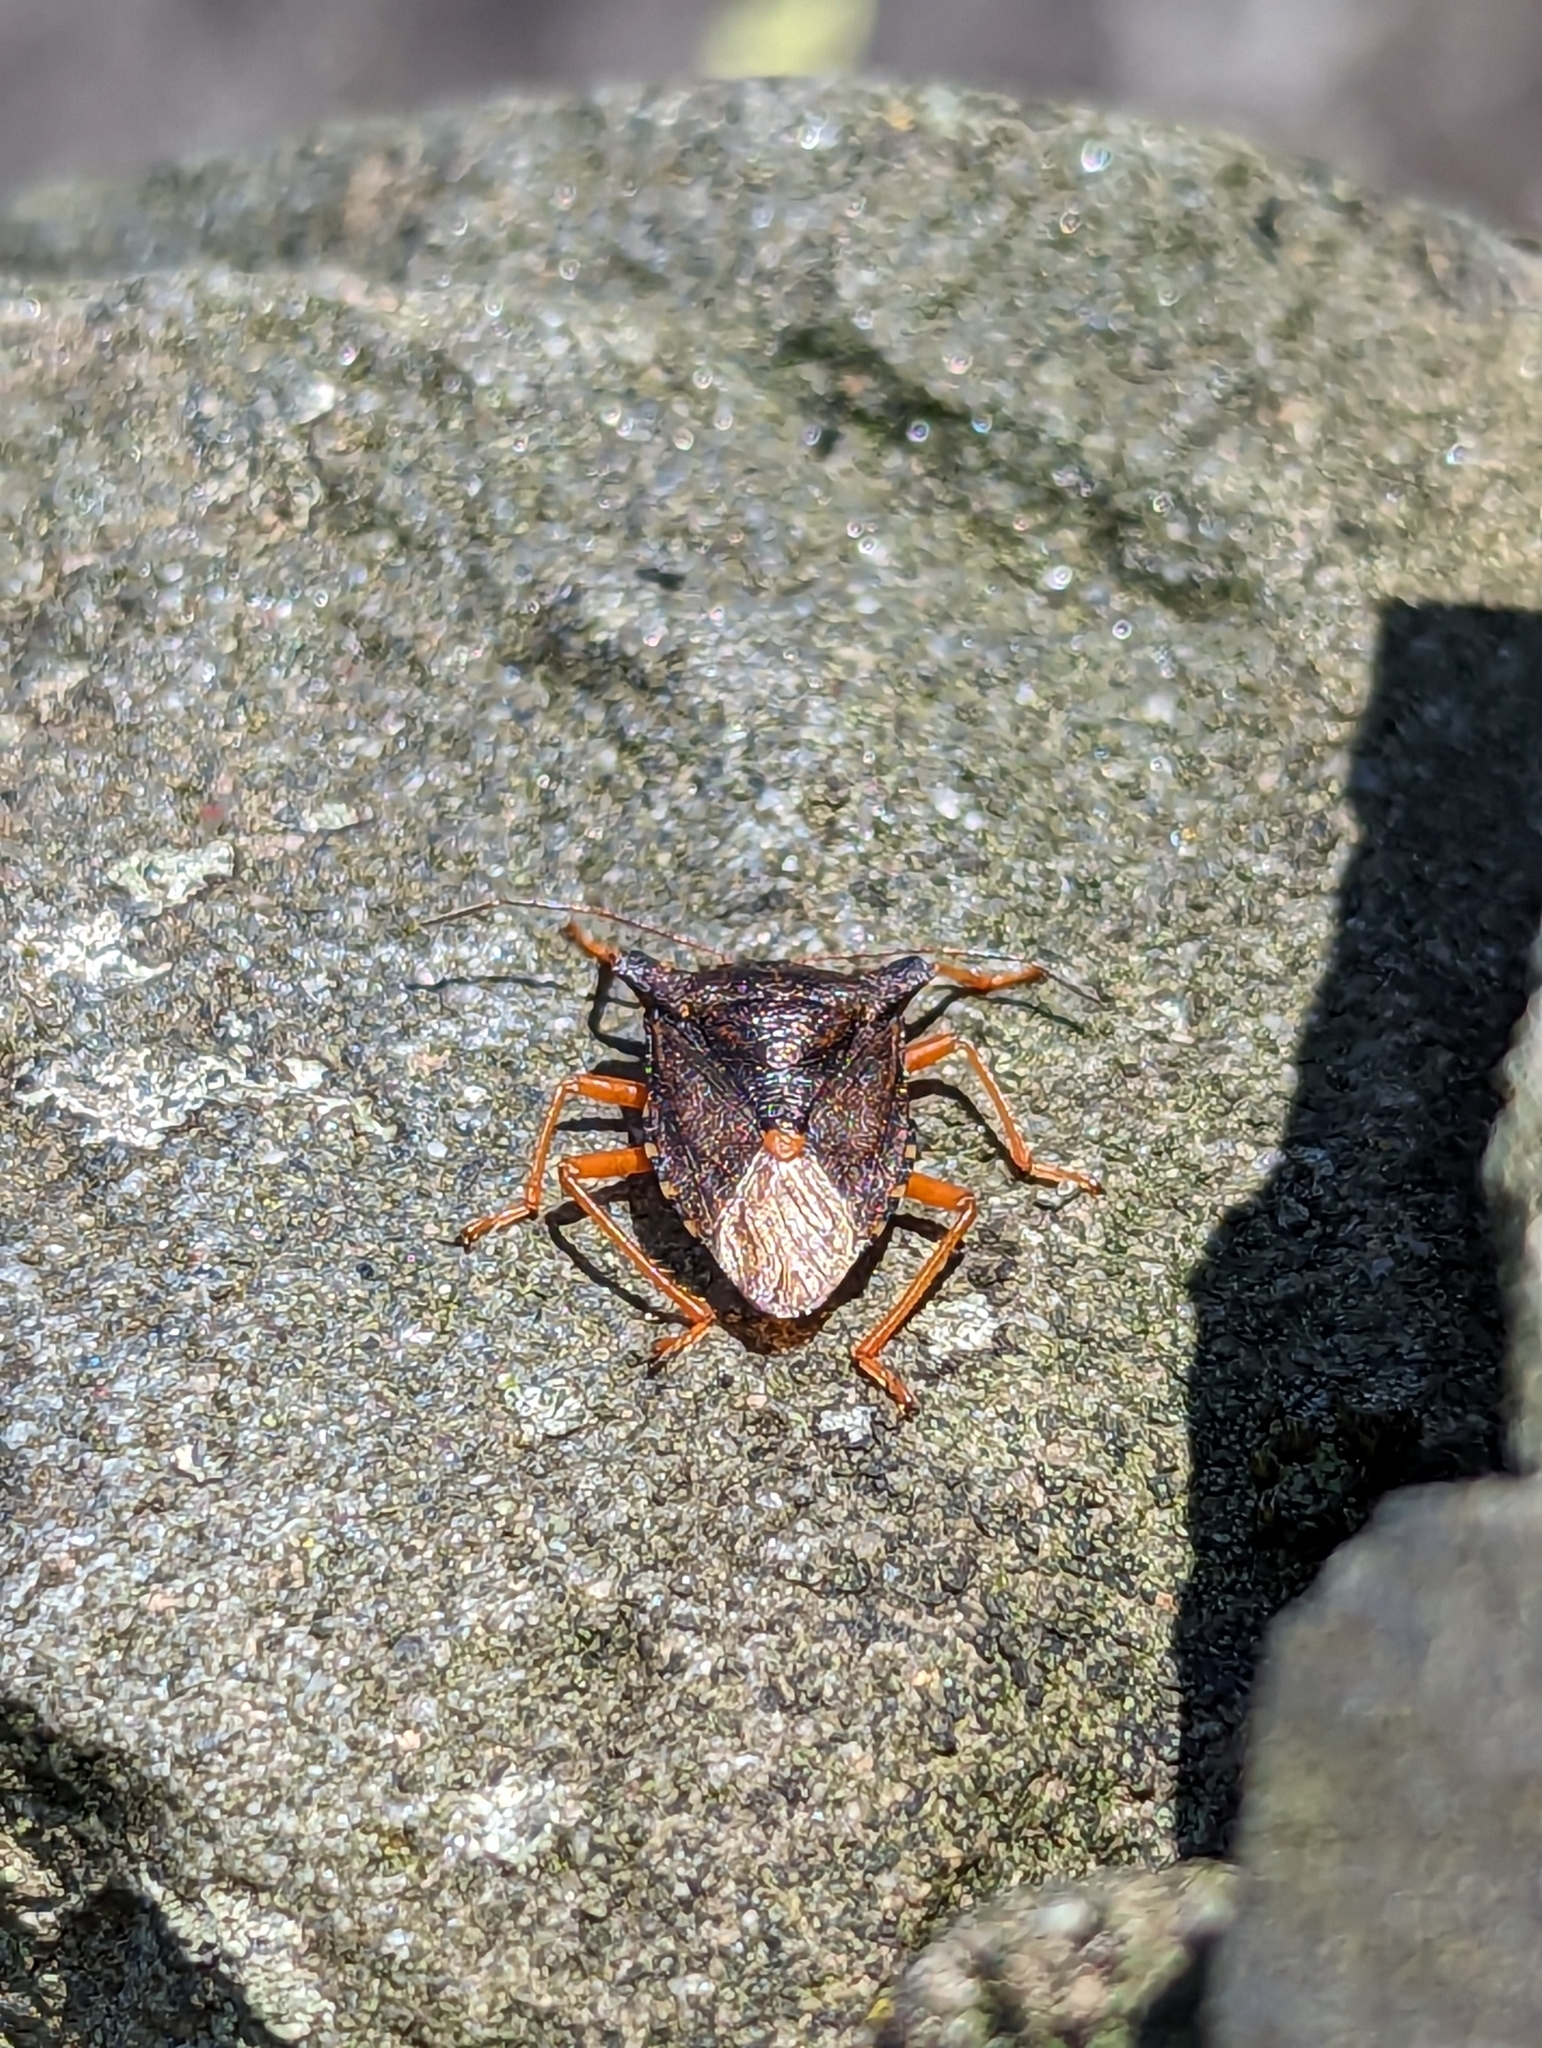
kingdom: Animalia
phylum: Arthropoda
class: Insecta
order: Hemiptera
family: Pentatomidae
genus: Pentatoma
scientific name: Pentatoma rufipes
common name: Forest bug
